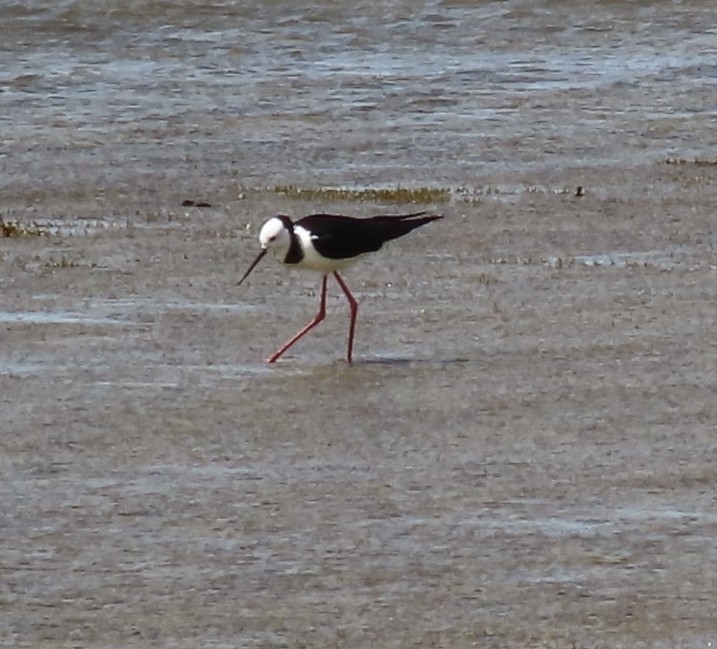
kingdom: Animalia
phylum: Chordata
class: Aves
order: Charadriiformes
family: Recurvirostridae
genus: Himantopus
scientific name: Himantopus leucocephalus
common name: White-headed stilt
